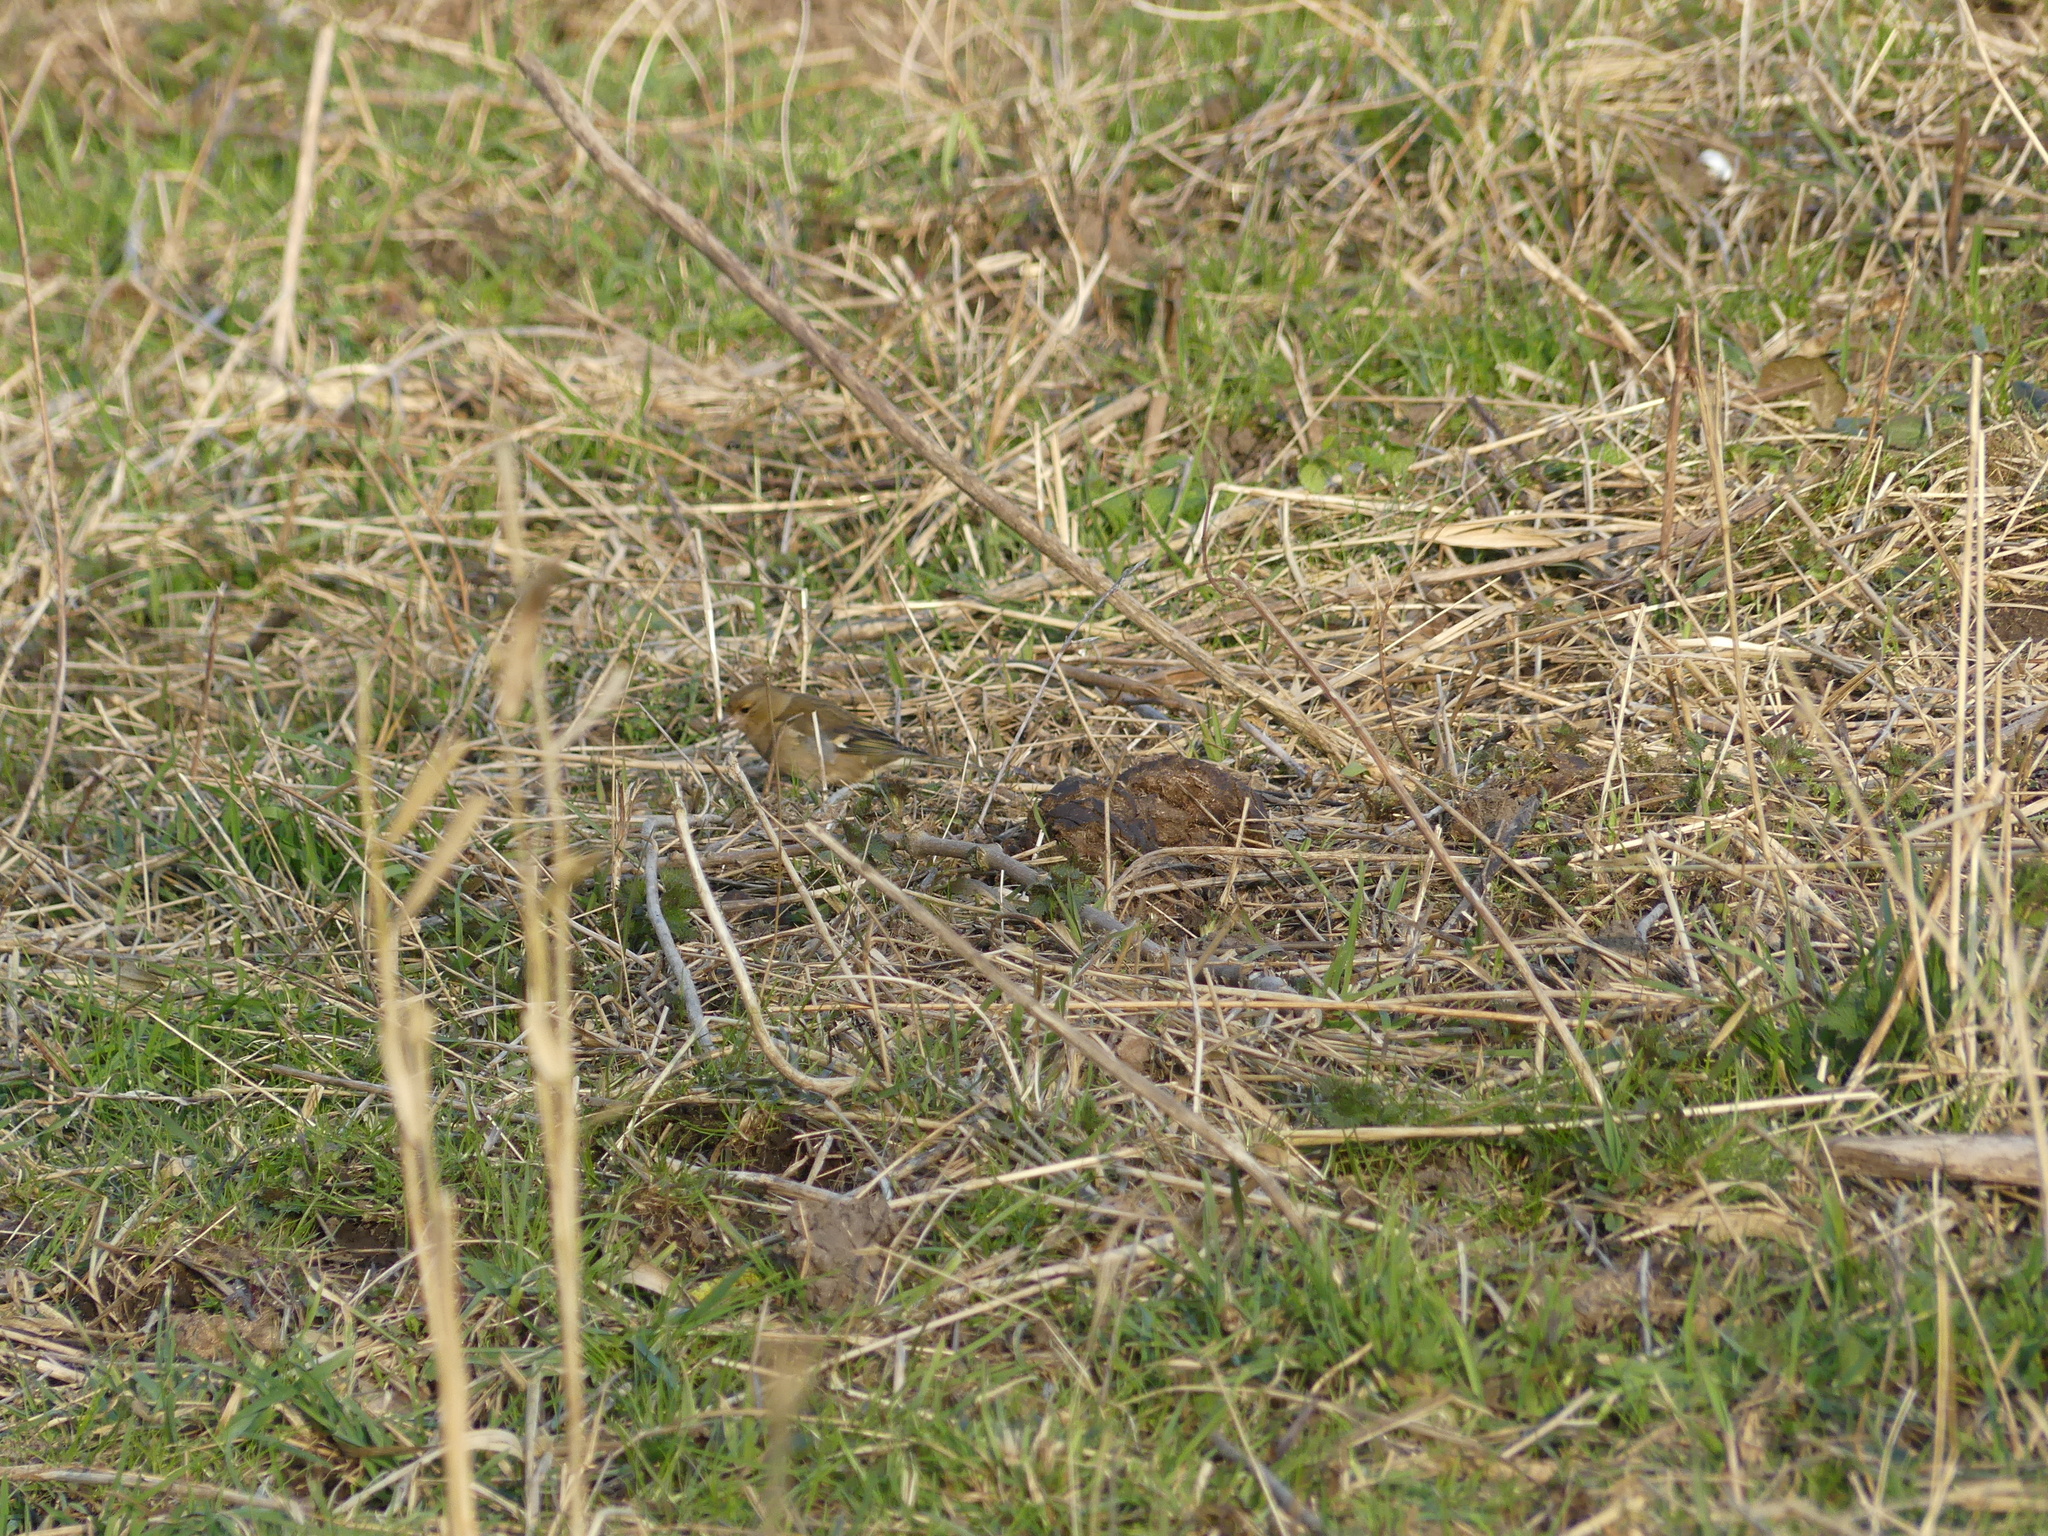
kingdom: Animalia
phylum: Chordata
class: Aves
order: Passeriformes
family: Fringillidae
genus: Fringilla
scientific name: Fringilla coelebs
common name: Common chaffinch
